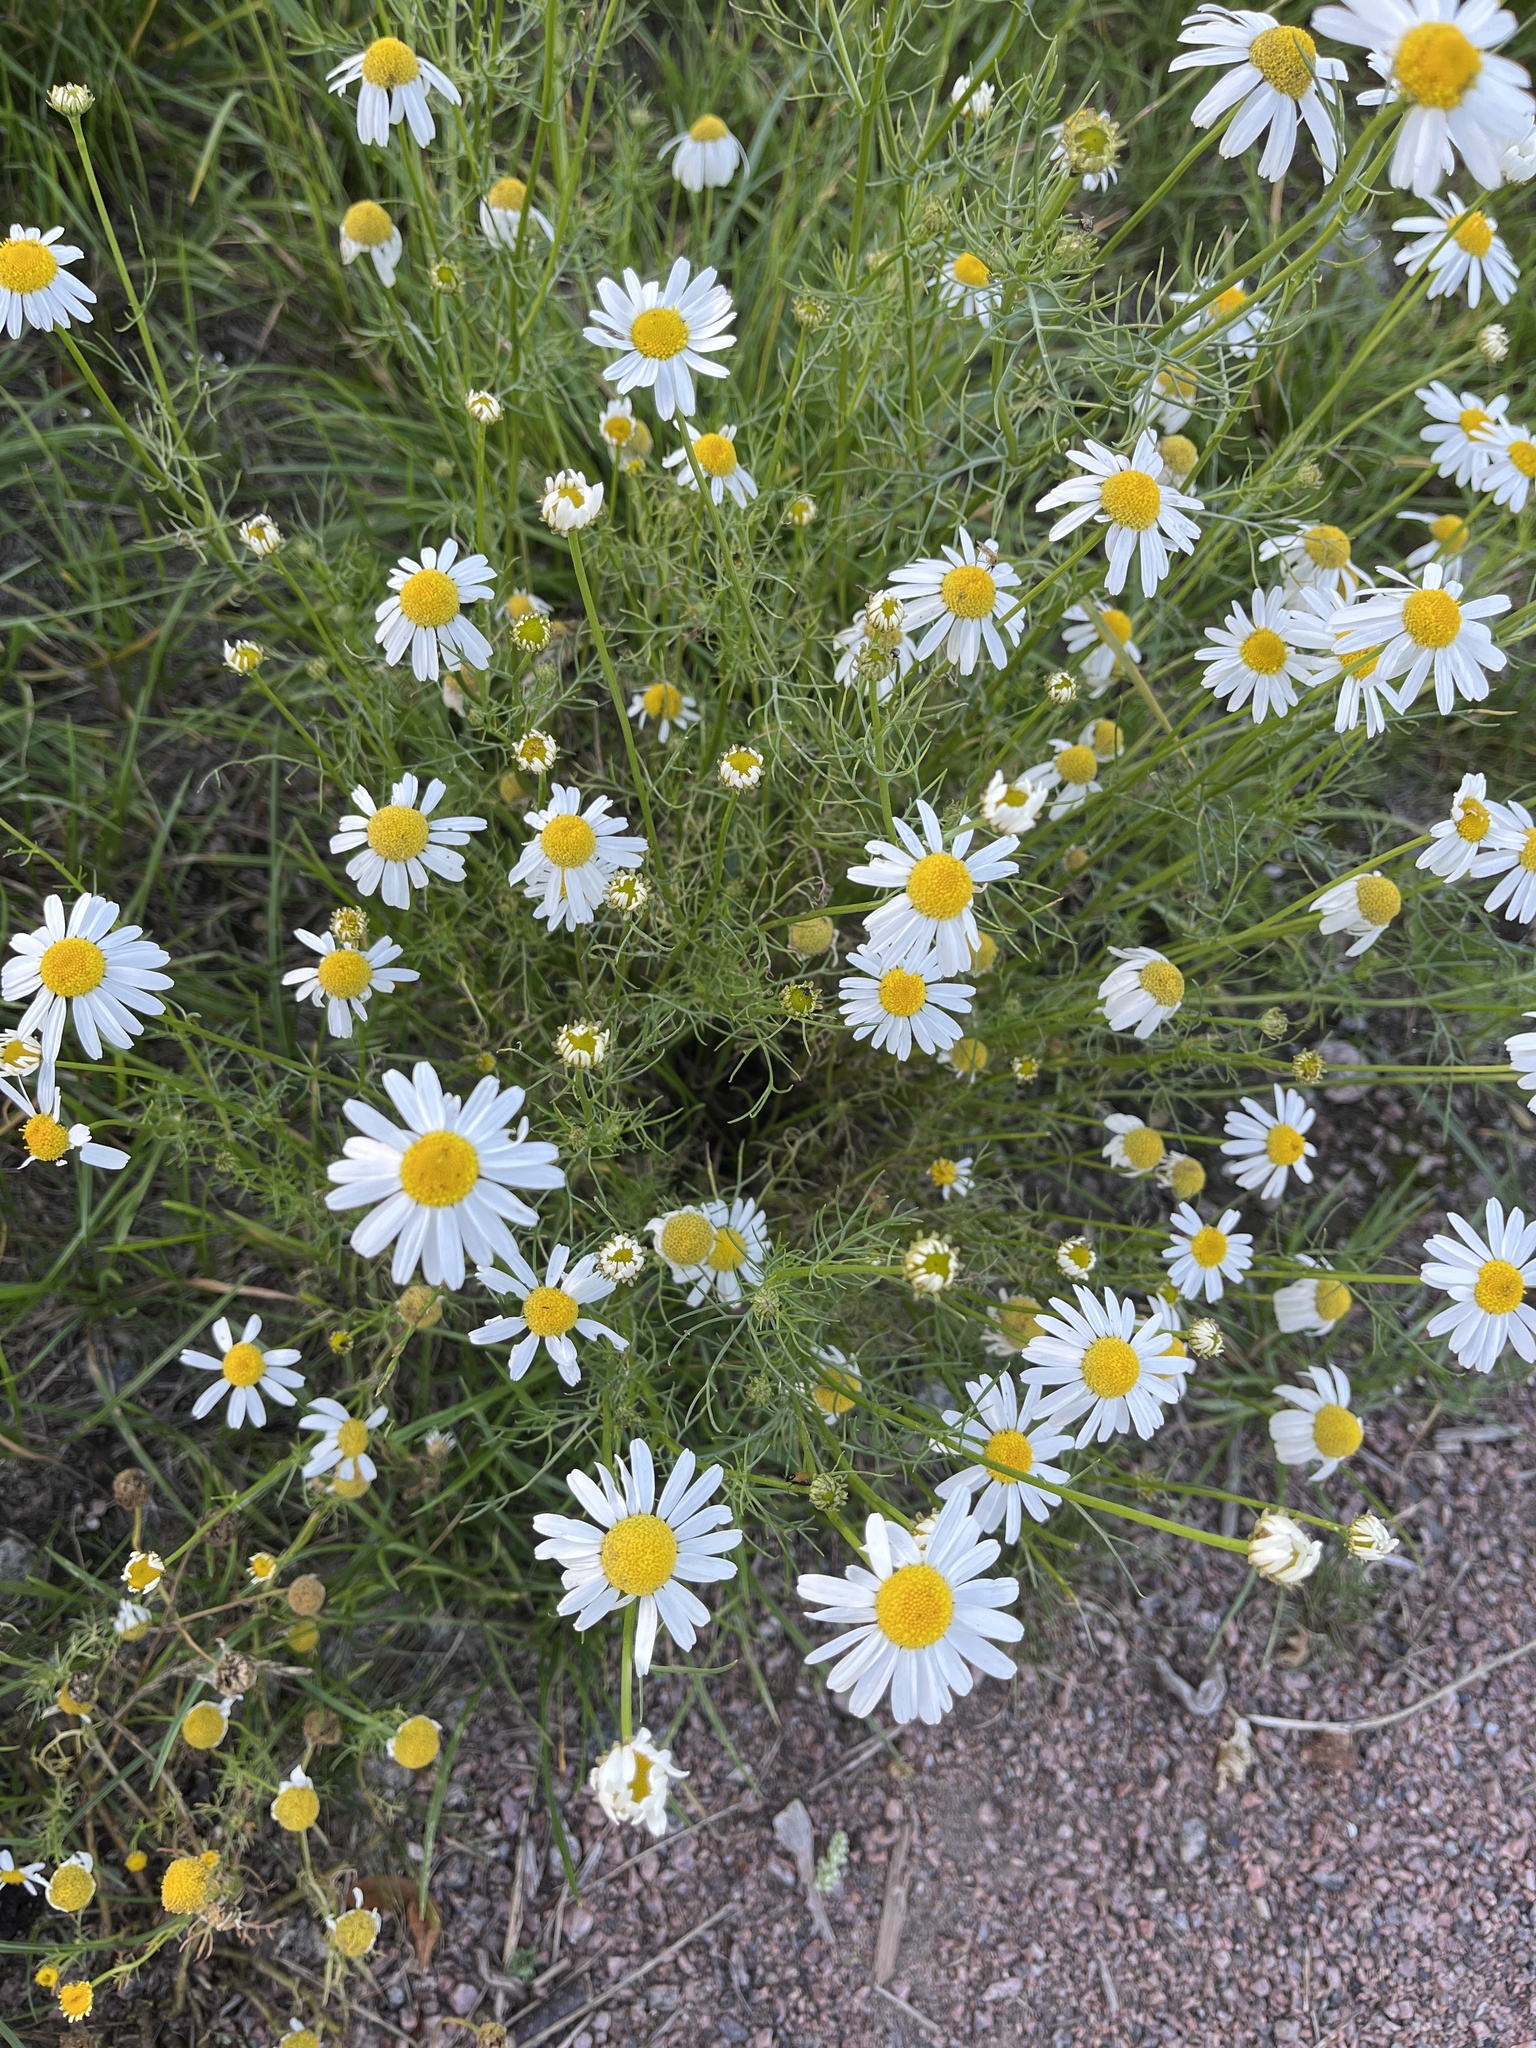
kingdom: Plantae
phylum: Tracheophyta
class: Magnoliopsida
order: Asterales
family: Asteraceae
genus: Tripleurospermum
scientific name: Tripleurospermum inodorum
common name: Scentless mayweed
